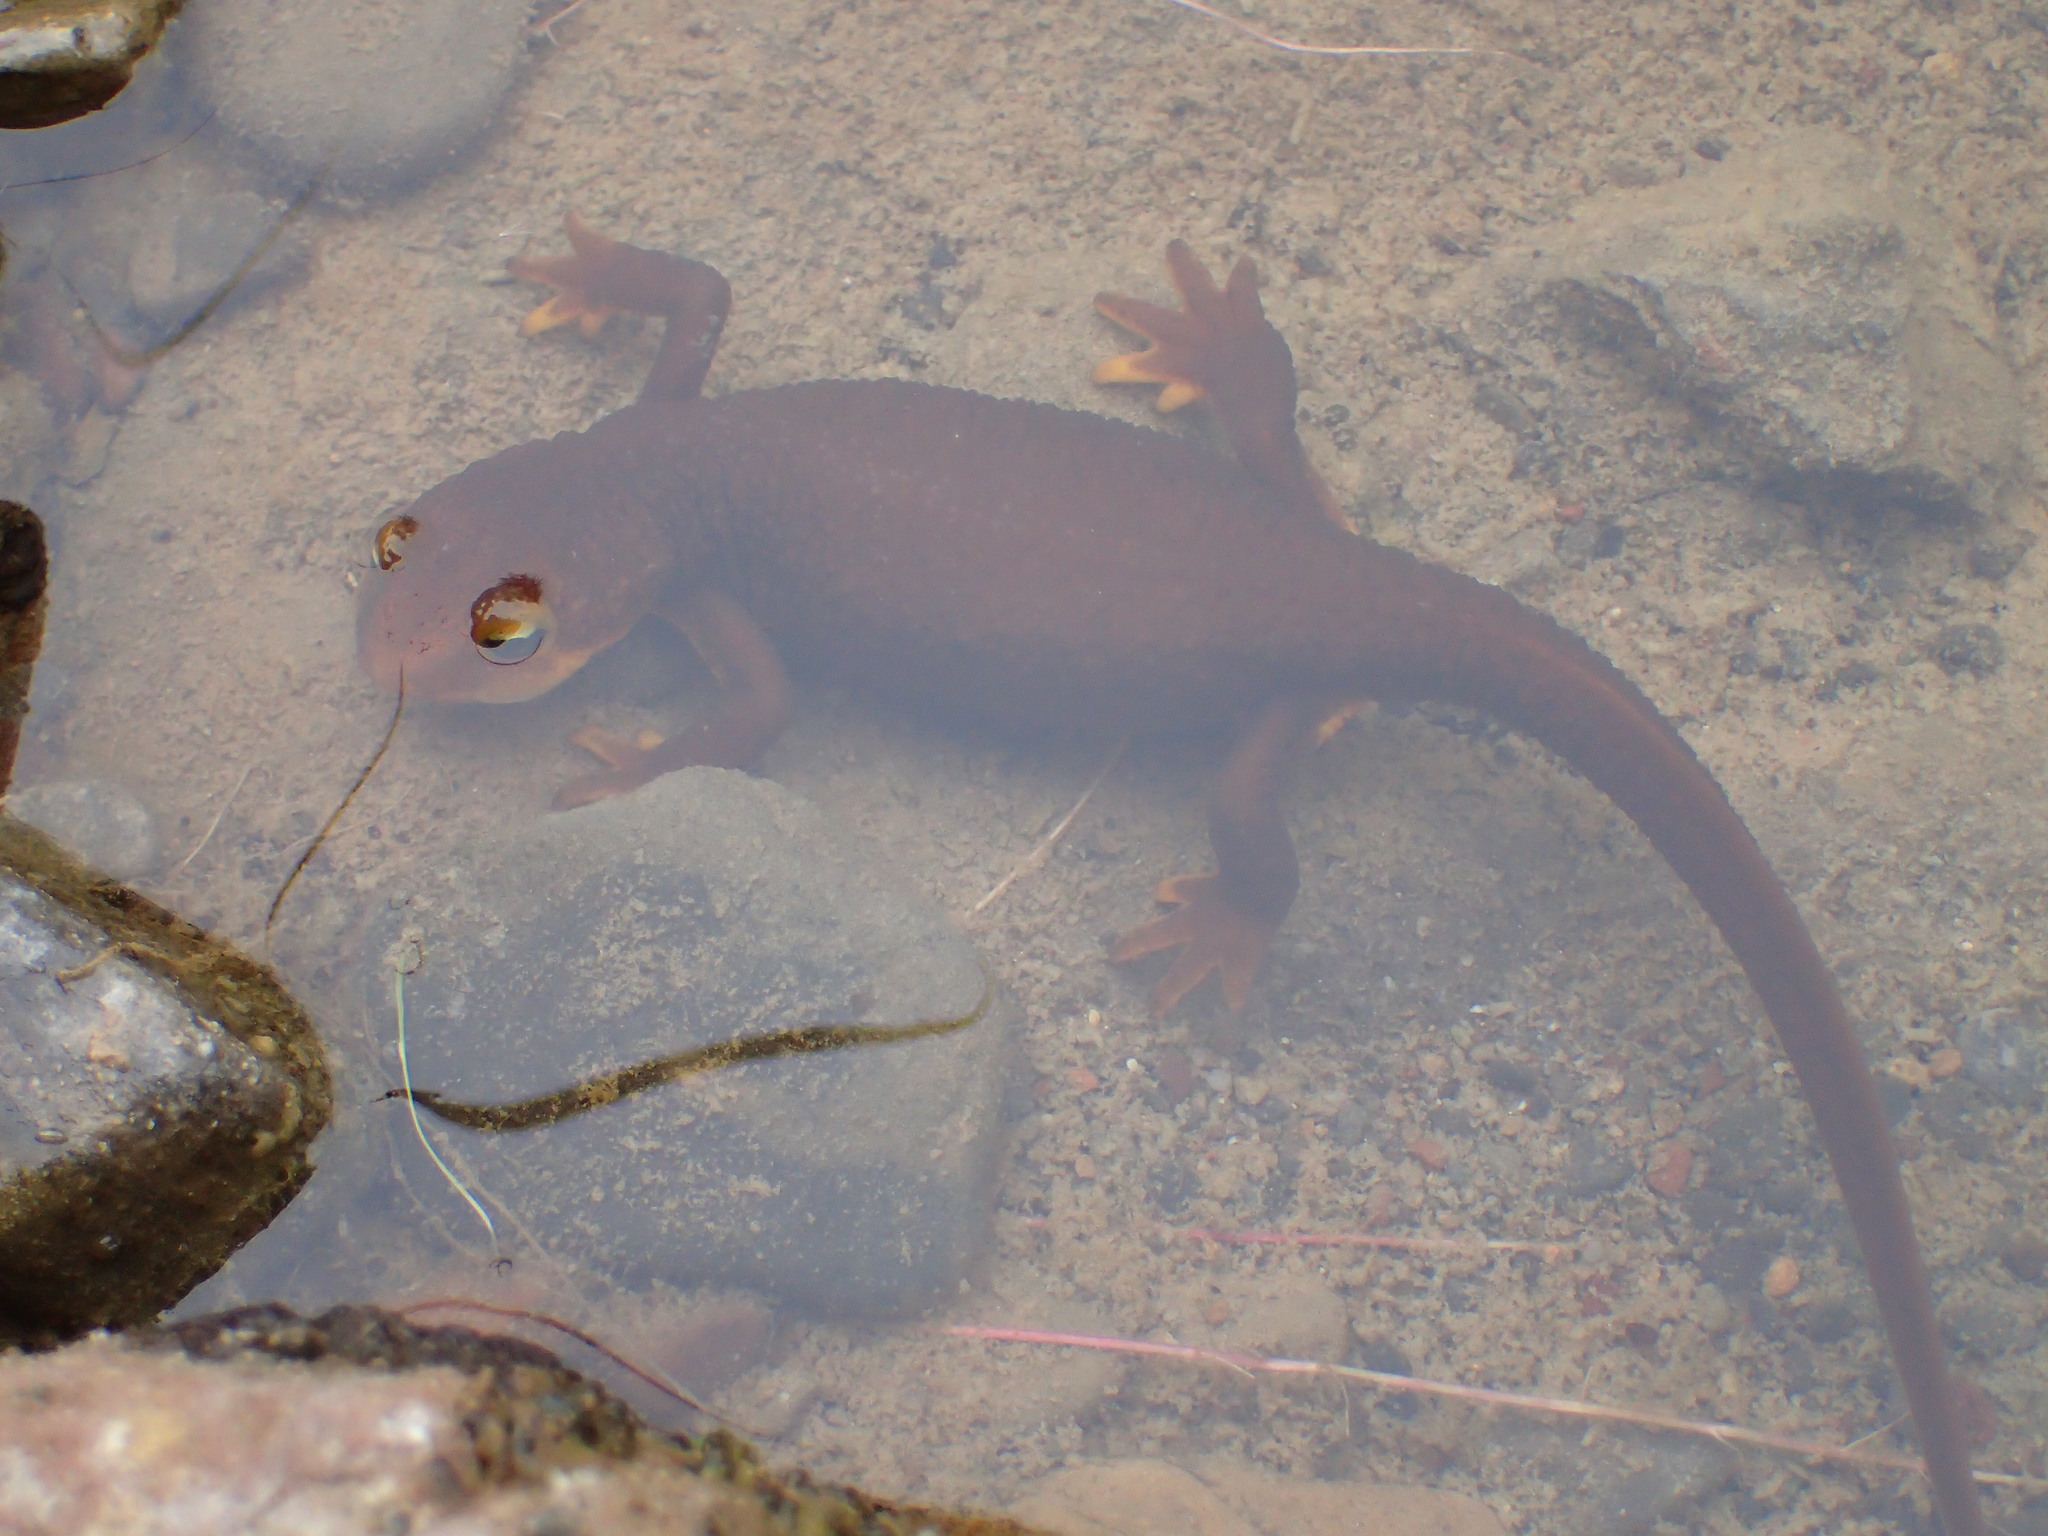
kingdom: Animalia
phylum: Chordata
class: Amphibia
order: Caudata
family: Salamandridae
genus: Taricha
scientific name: Taricha torosa
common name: California newt
